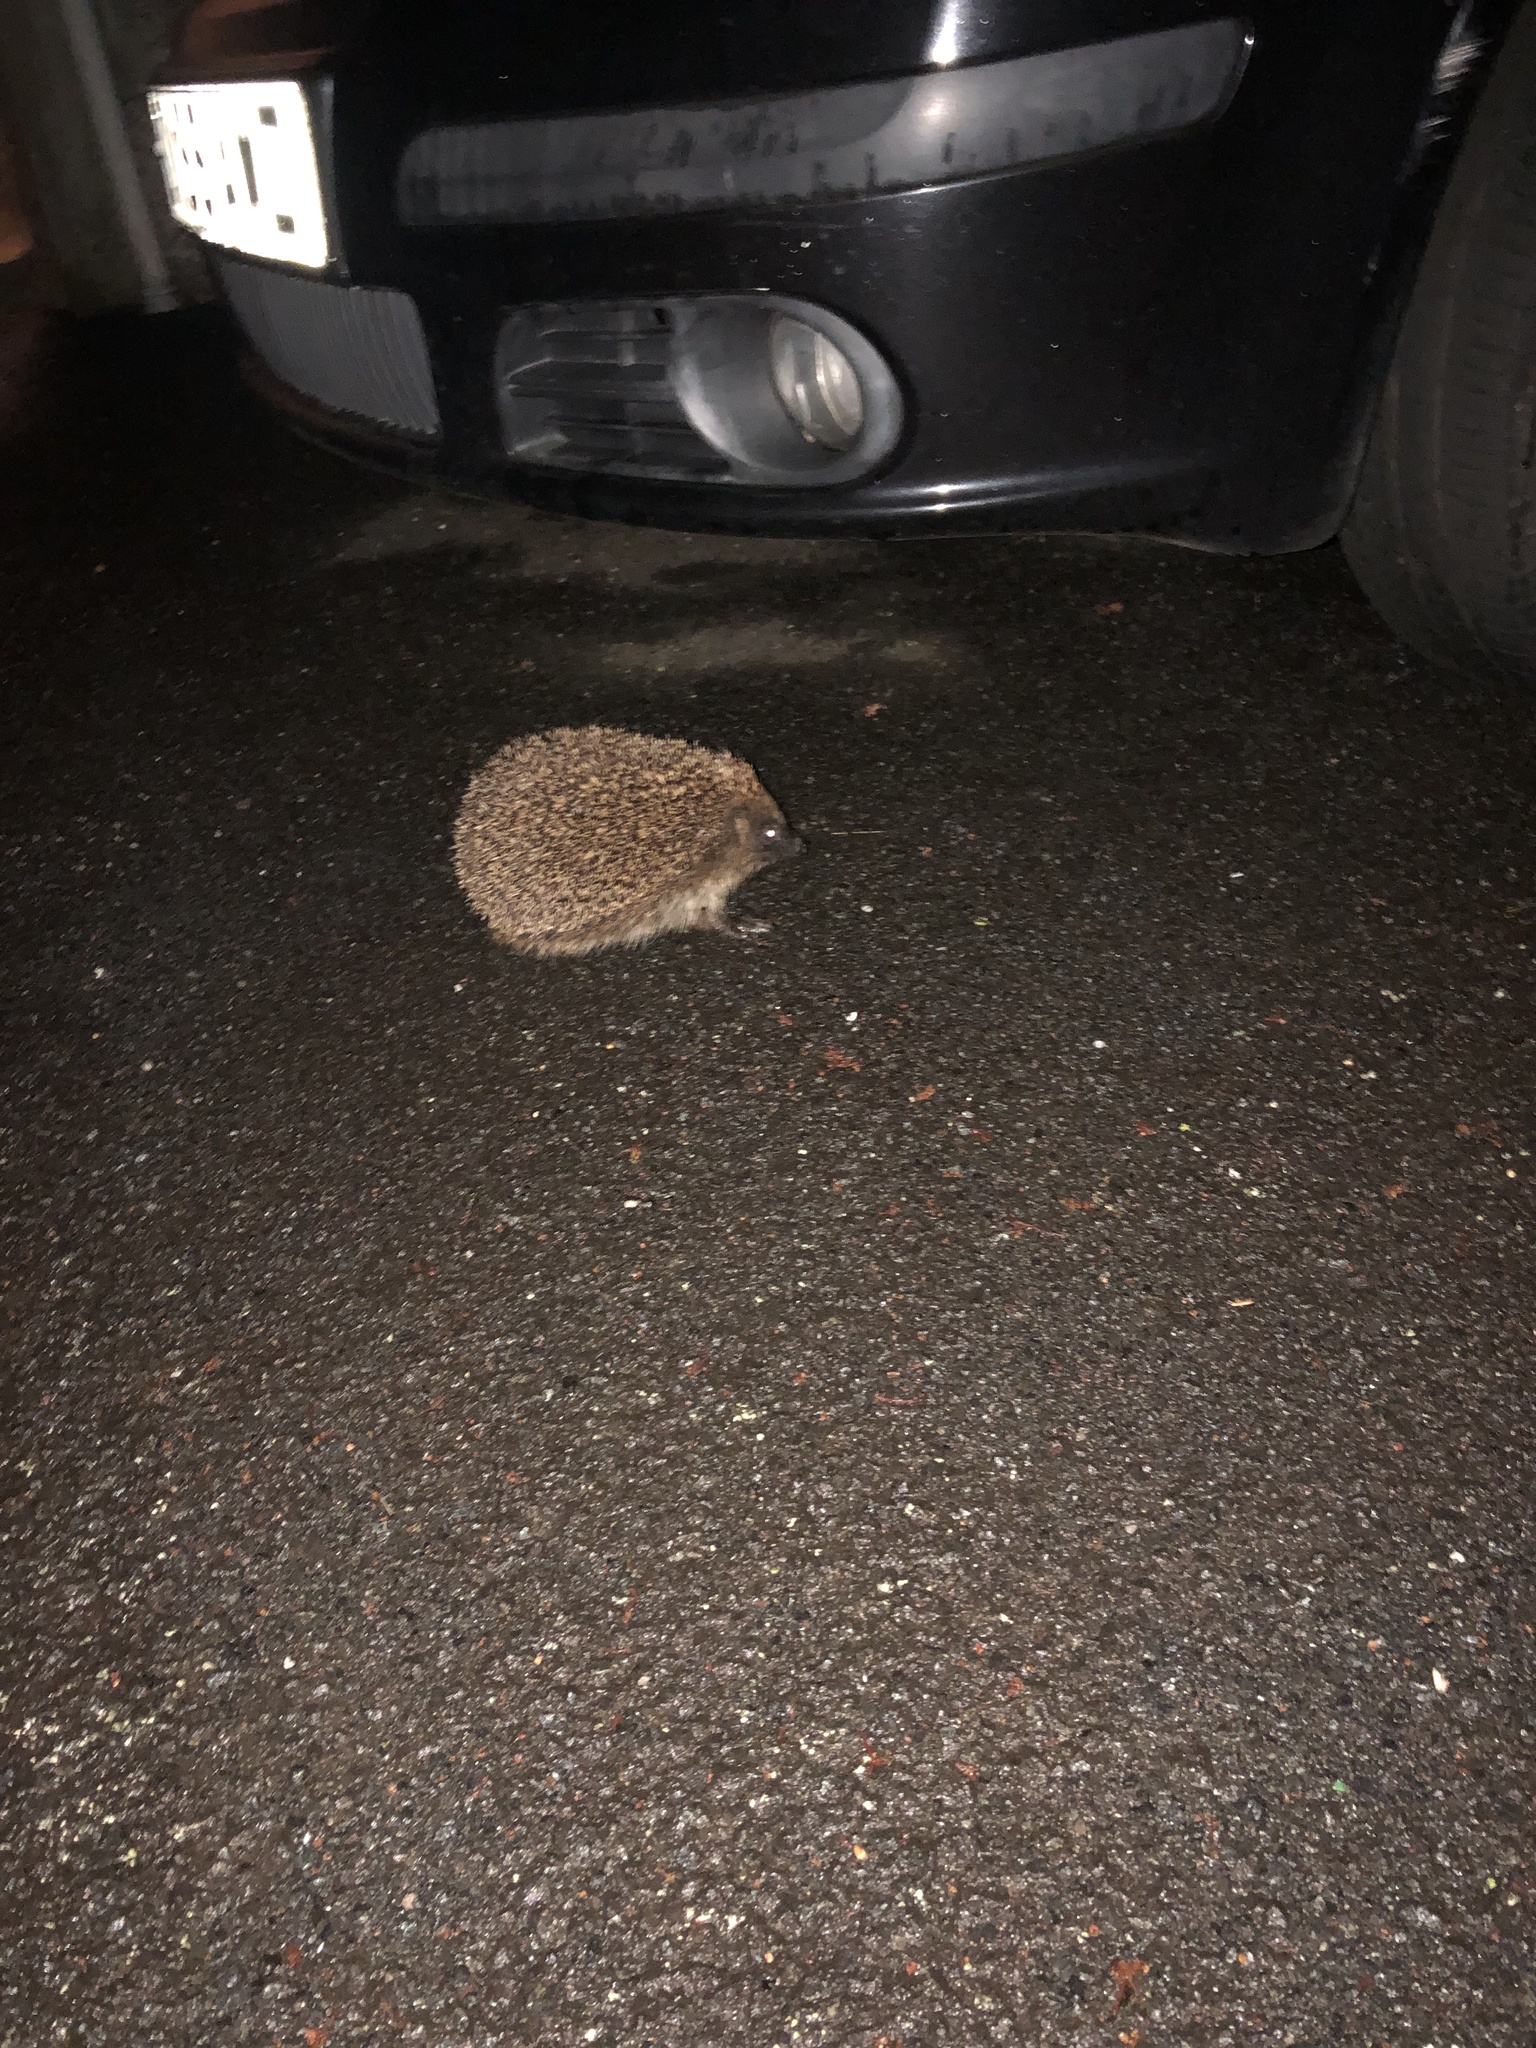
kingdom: Animalia
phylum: Chordata
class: Mammalia
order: Erinaceomorpha
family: Erinaceidae
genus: Erinaceus
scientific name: Erinaceus europaeus
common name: West european hedgehog
